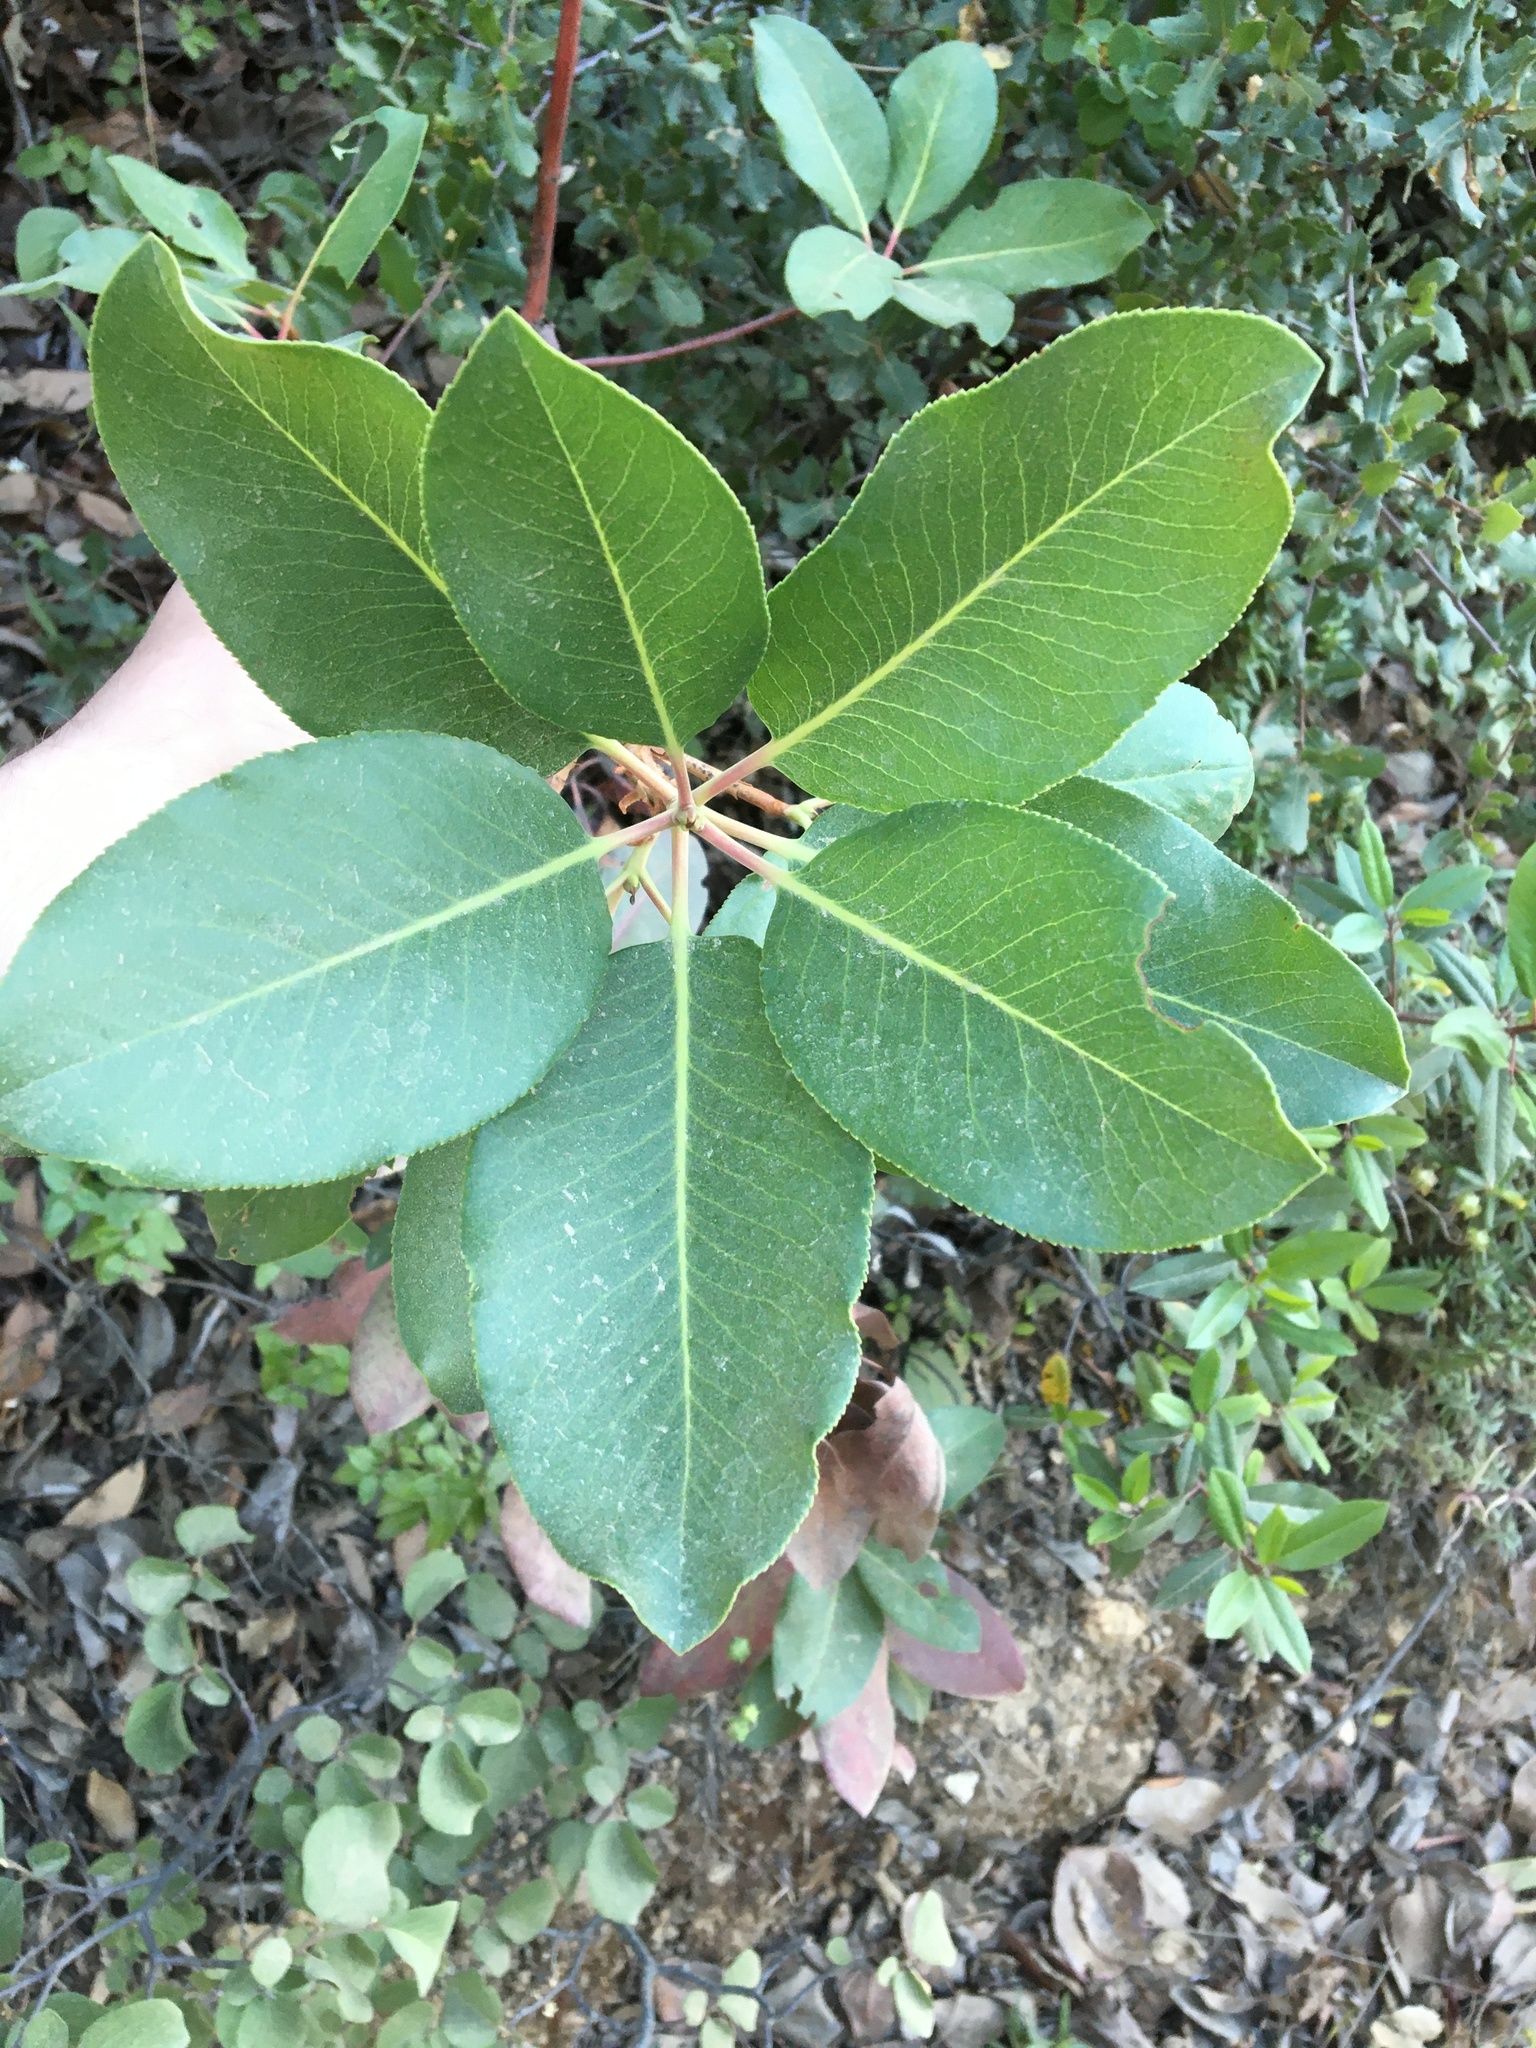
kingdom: Plantae
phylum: Tracheophyta
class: Magnoliopsida
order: Ericales
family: Ericaceae
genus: Arbutus
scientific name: Arbutus menziesii
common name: Pacific madrone
